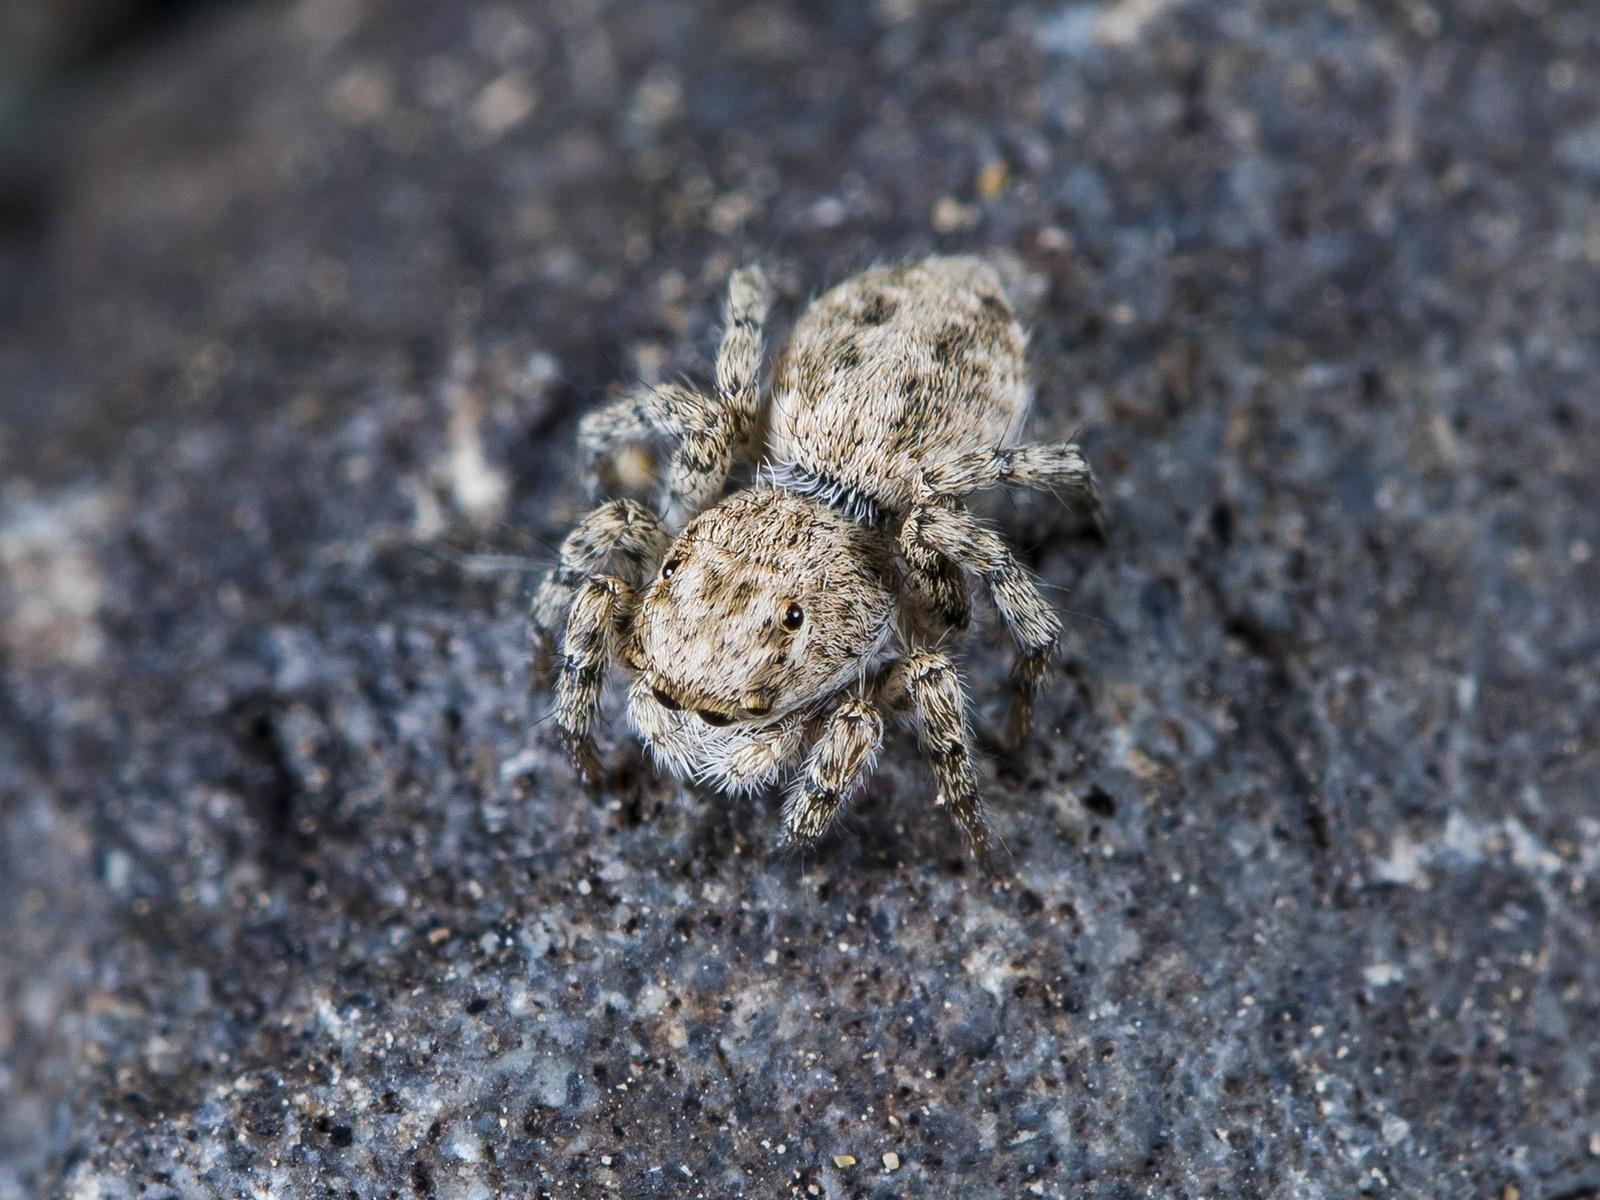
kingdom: Animalia
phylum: Arthropoda
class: Arachnida
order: Araneae
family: Salticidae
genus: Aelurillus
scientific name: Aelurillus dubatolovi
